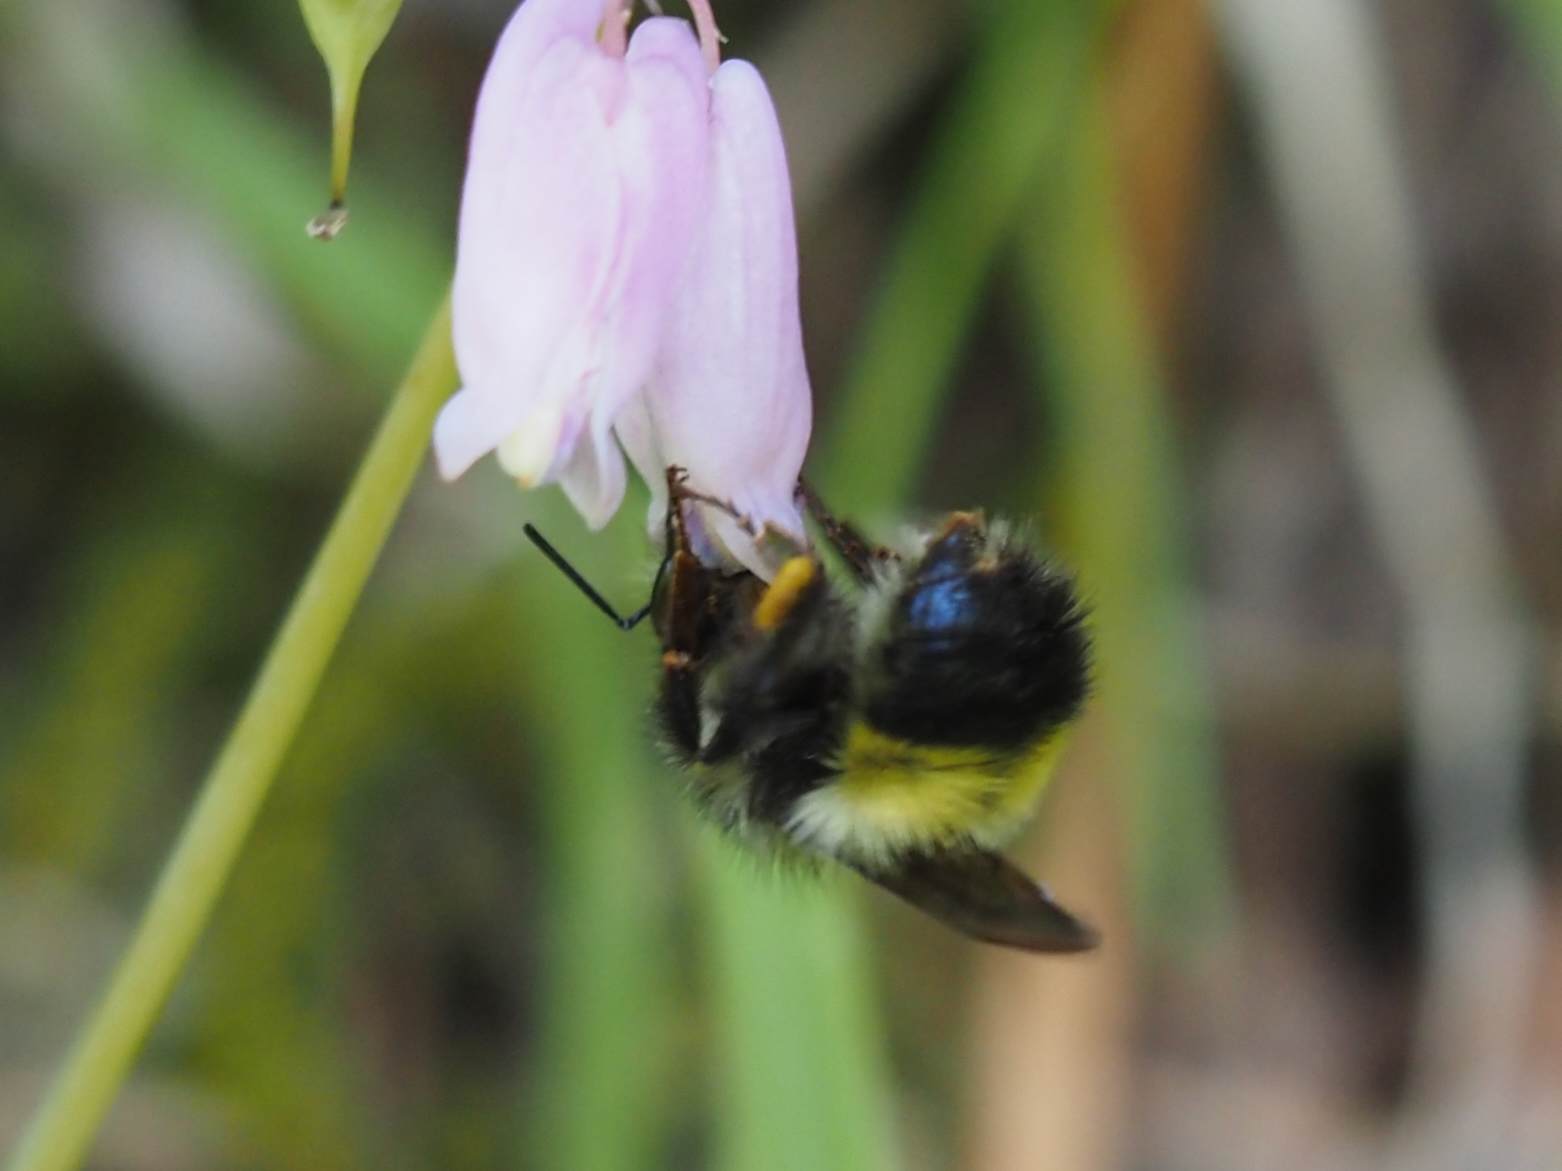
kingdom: Animalia
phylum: Arthropoda
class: Insecta
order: Hymenoptera
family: Apidae
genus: Bombus
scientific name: Bombus flavifrons
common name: Yellow head bumble bee
